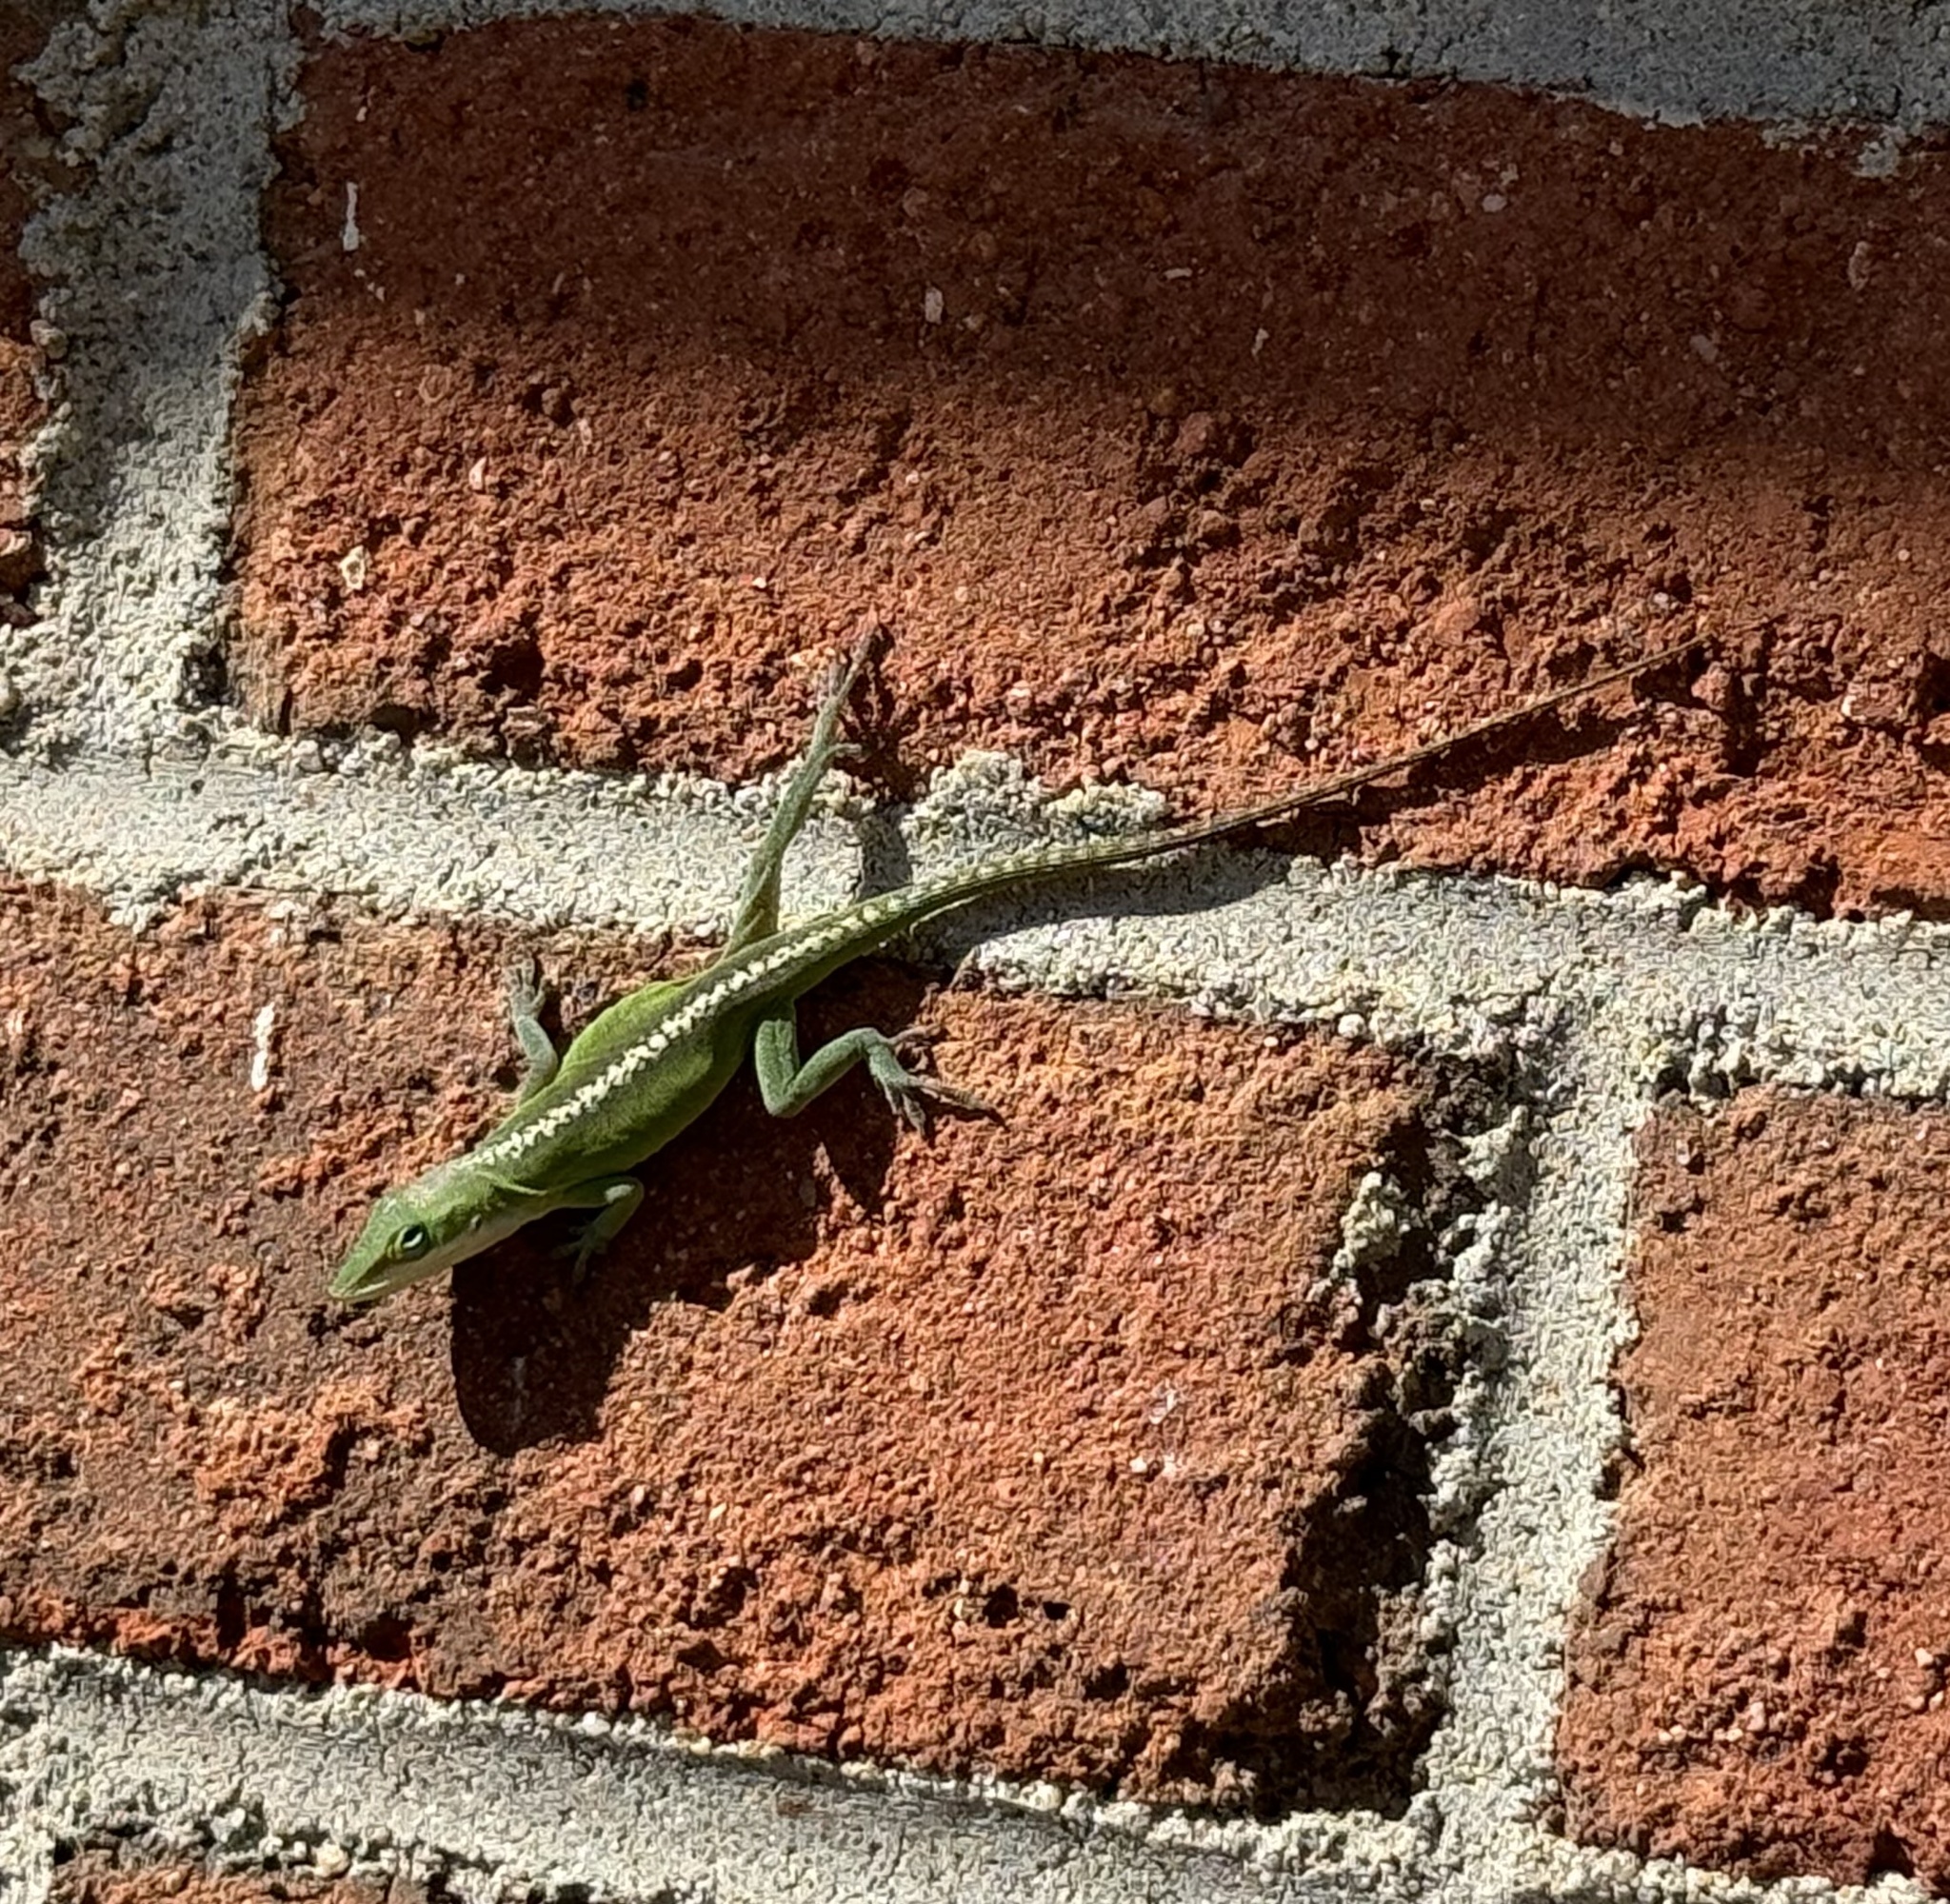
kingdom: Animalia
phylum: Chordata
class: Squamata
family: Dactyloidae
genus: Anolis
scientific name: Anolis carolinensis
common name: Green anole
